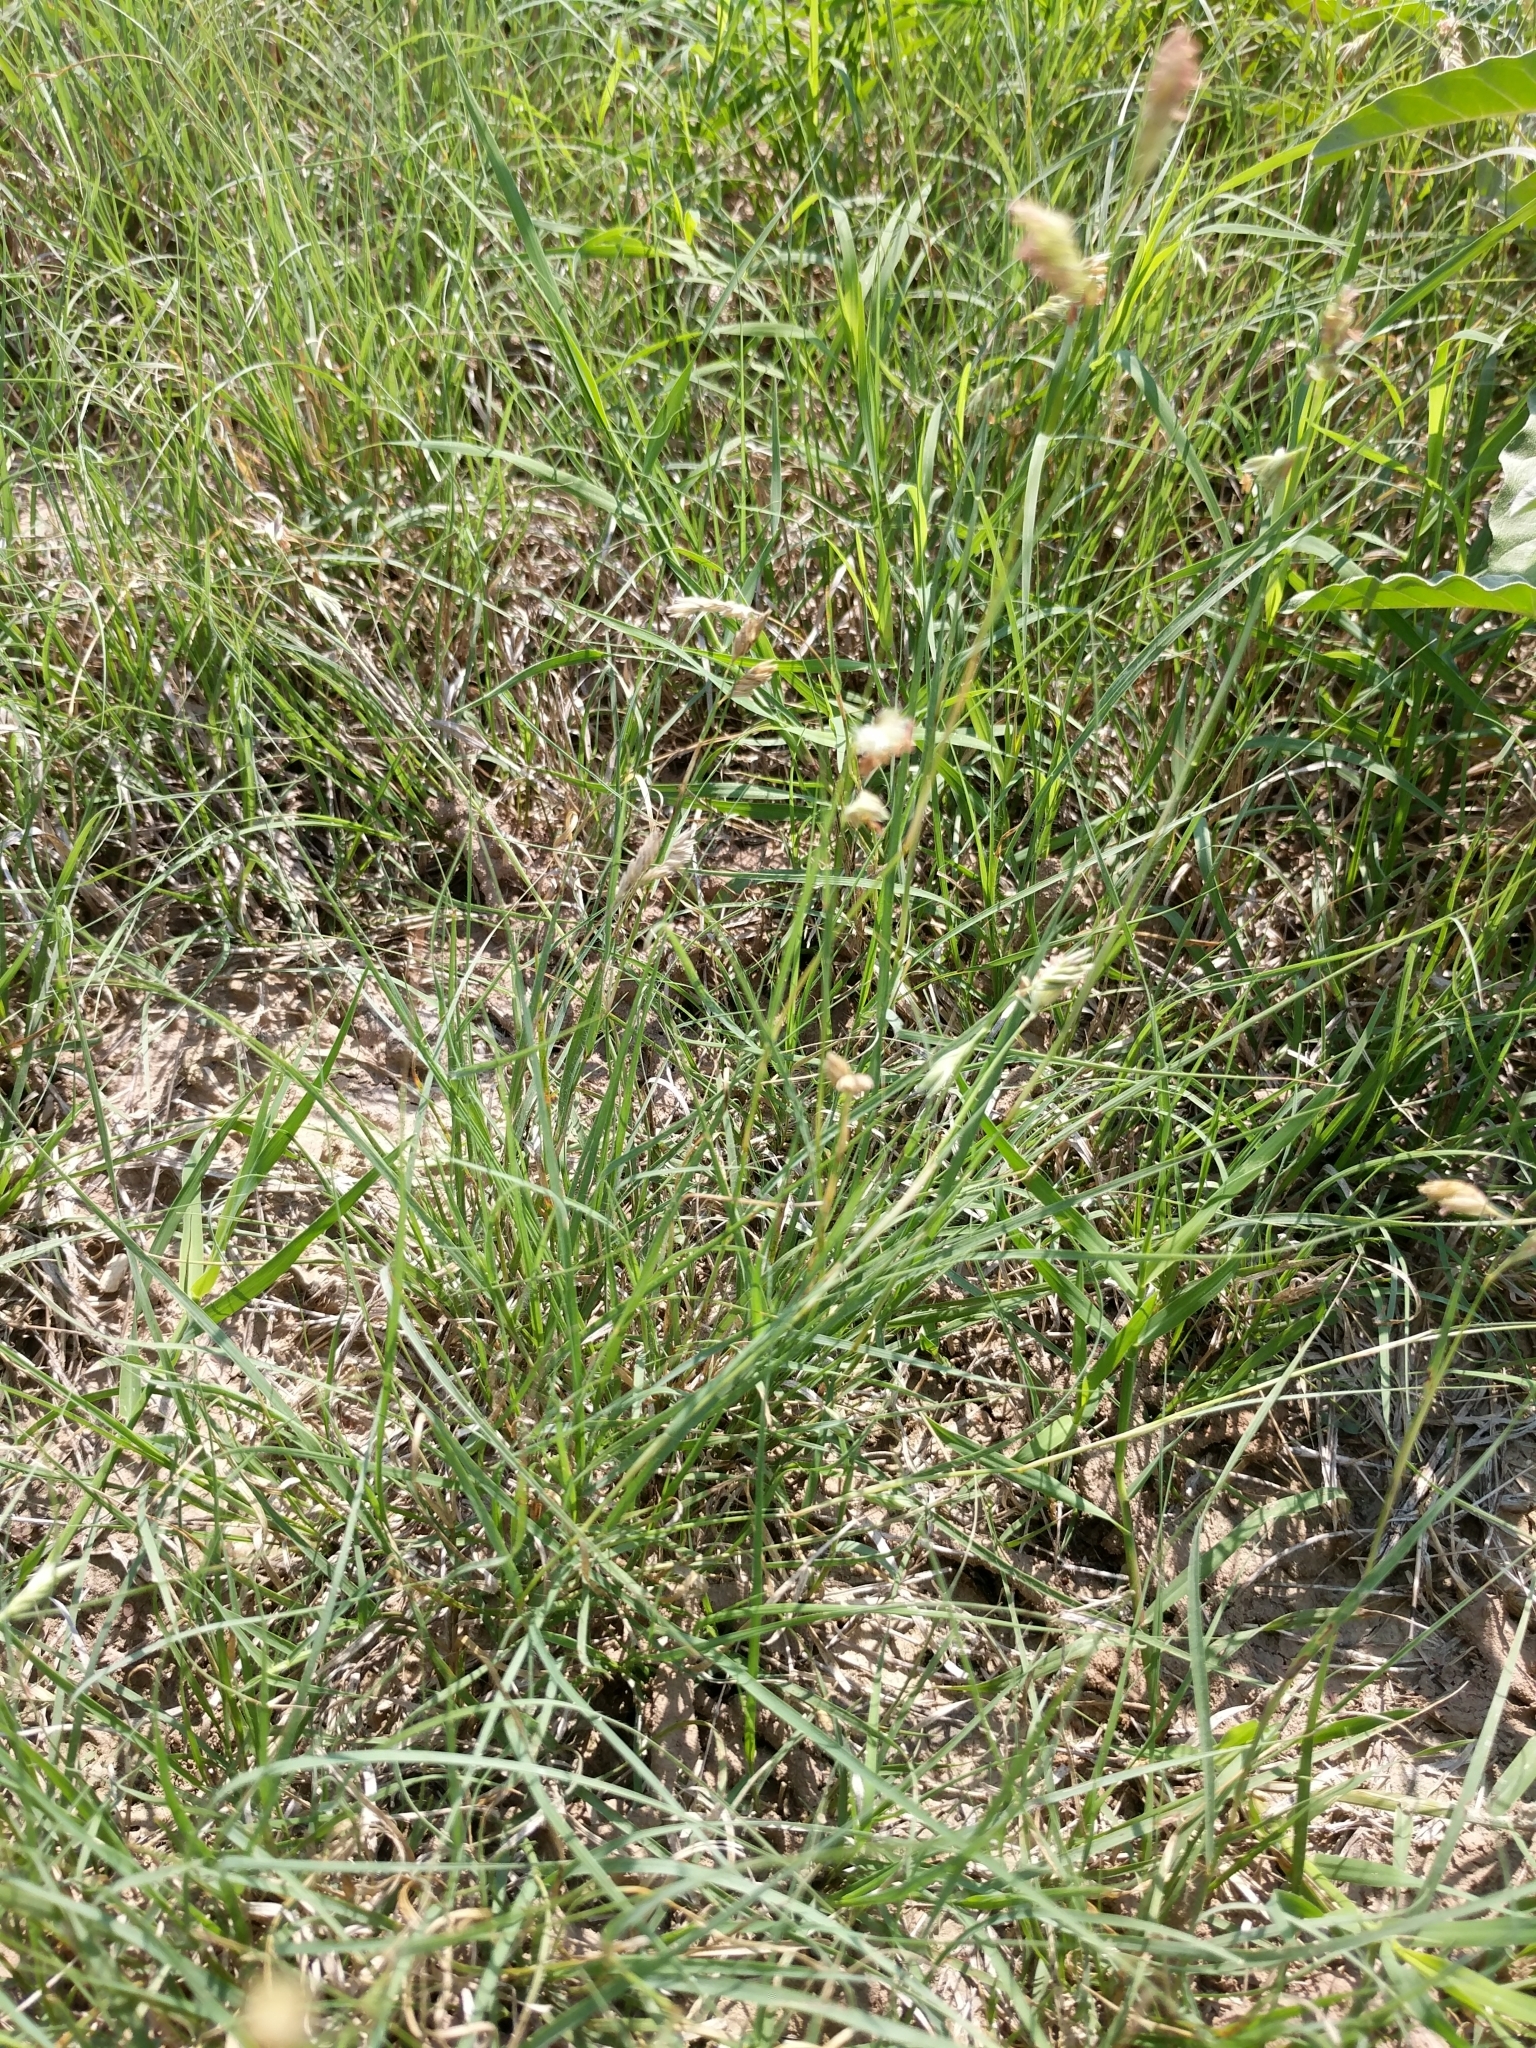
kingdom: Plantae
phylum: Tracheophyta
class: Liliopsida
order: Poales
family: Poaceae
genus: Bouteloua
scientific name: Bouteloua dactyloides
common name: Buffalo grass
